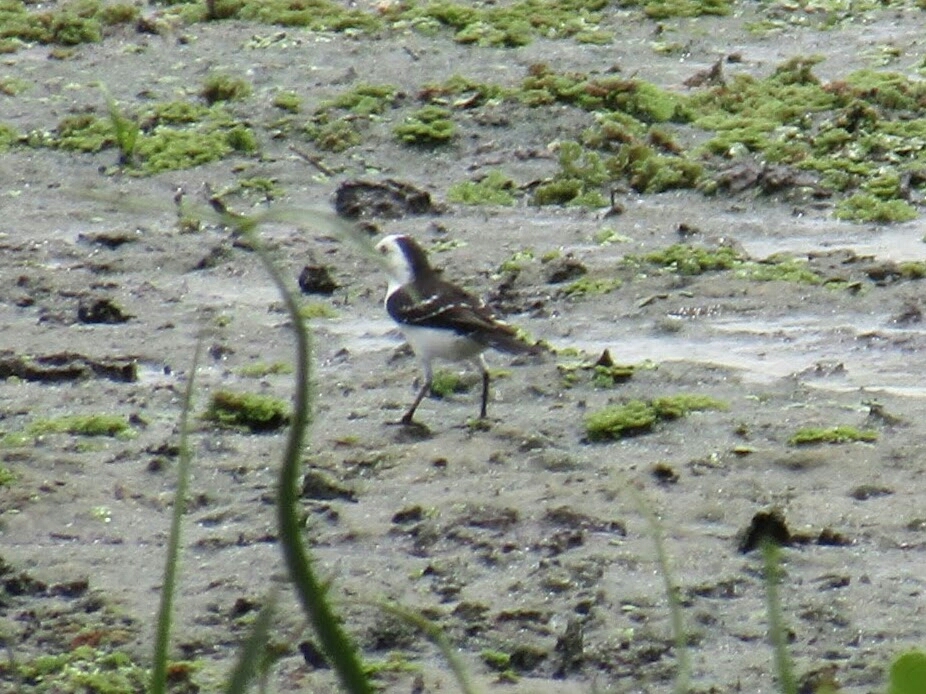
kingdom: Animalia
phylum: Chordata
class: Aves
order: Passeriformes
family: Tyrannidae
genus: Fluvicola
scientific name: Fluvicola pica
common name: Pied water-tyrant
